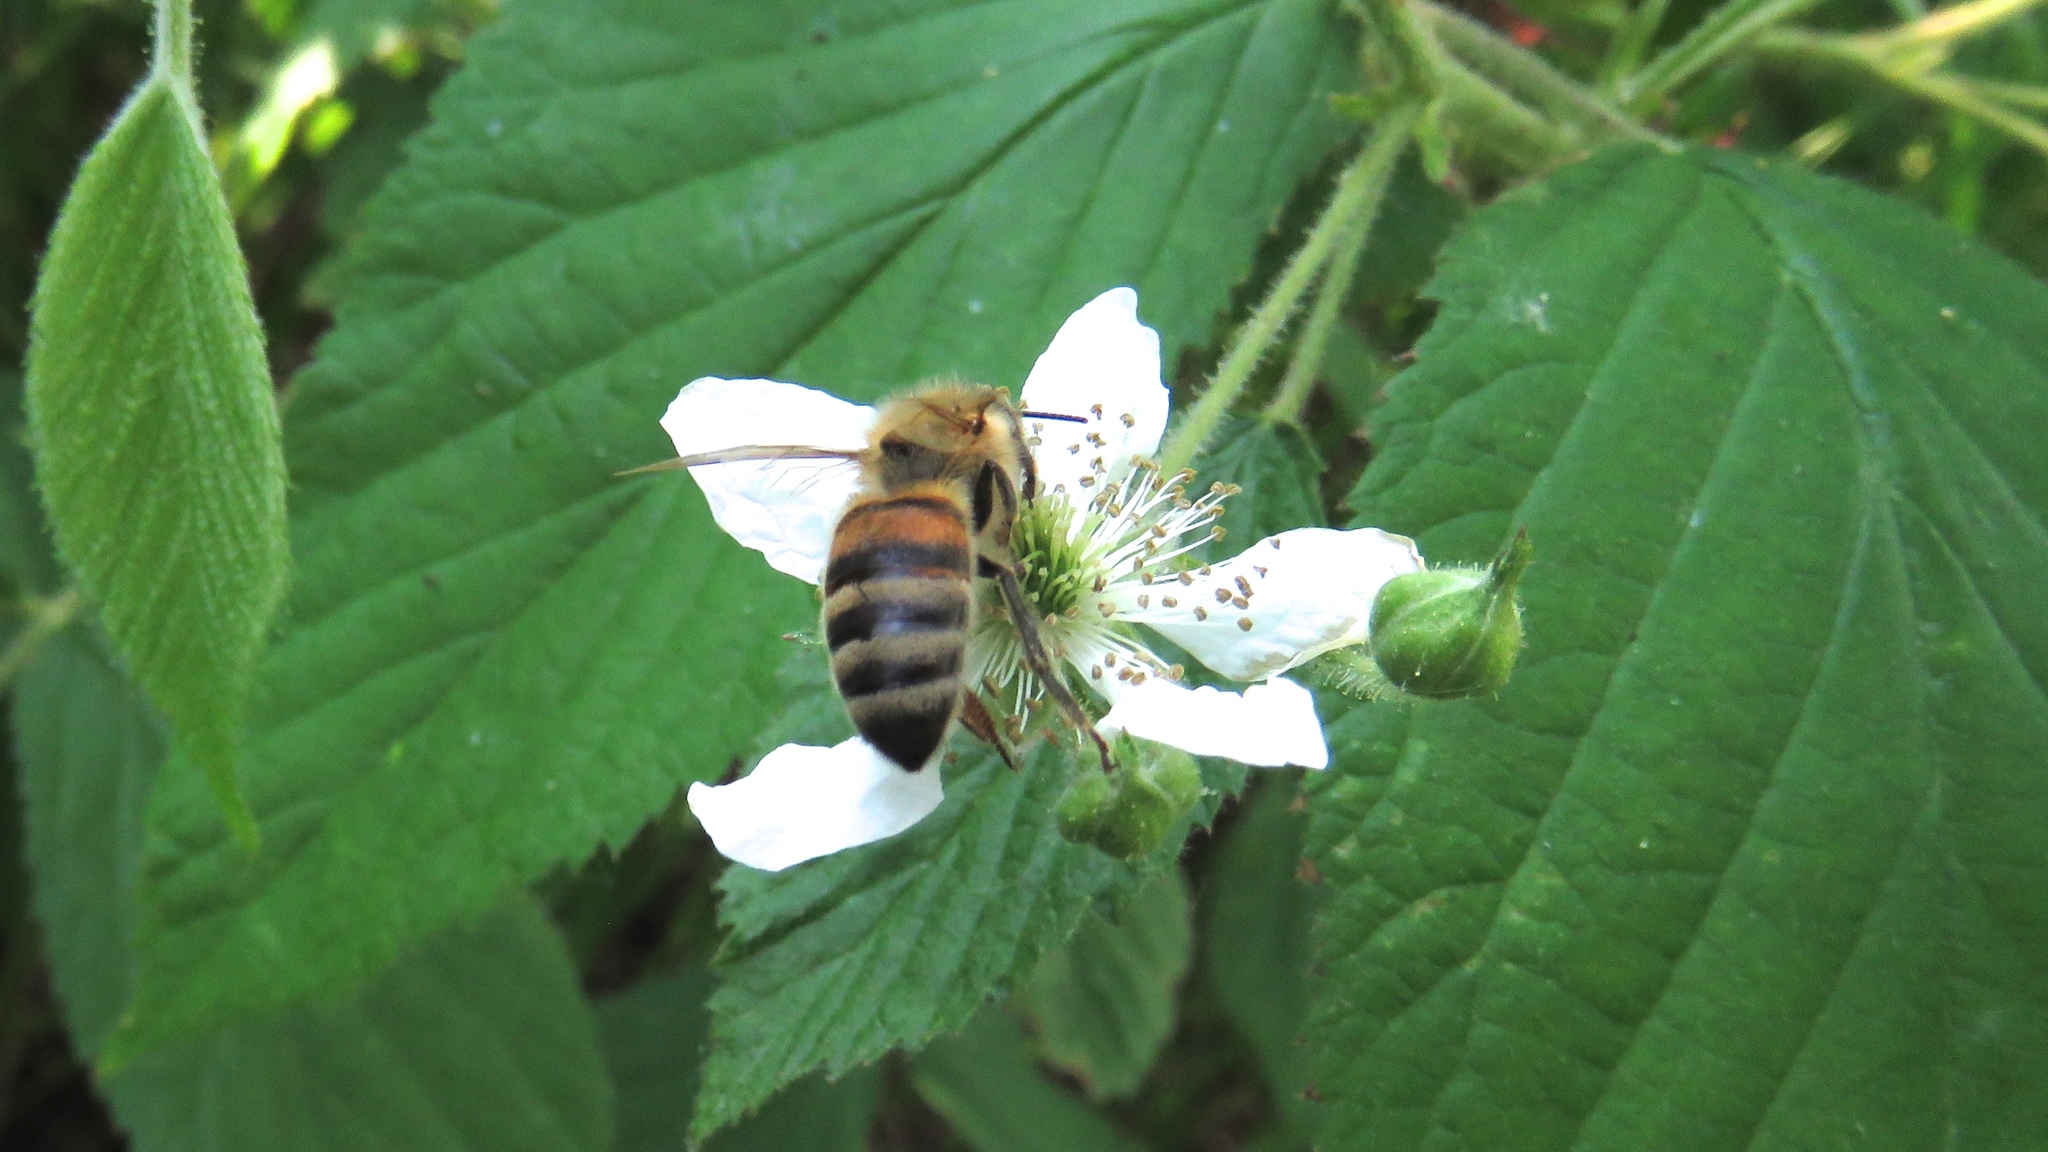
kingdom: Animalia
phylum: Arthropoda
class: Insecta
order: Hymenoptera
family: Apidae
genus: Apis
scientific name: Apis mellifera
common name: Honey bee
